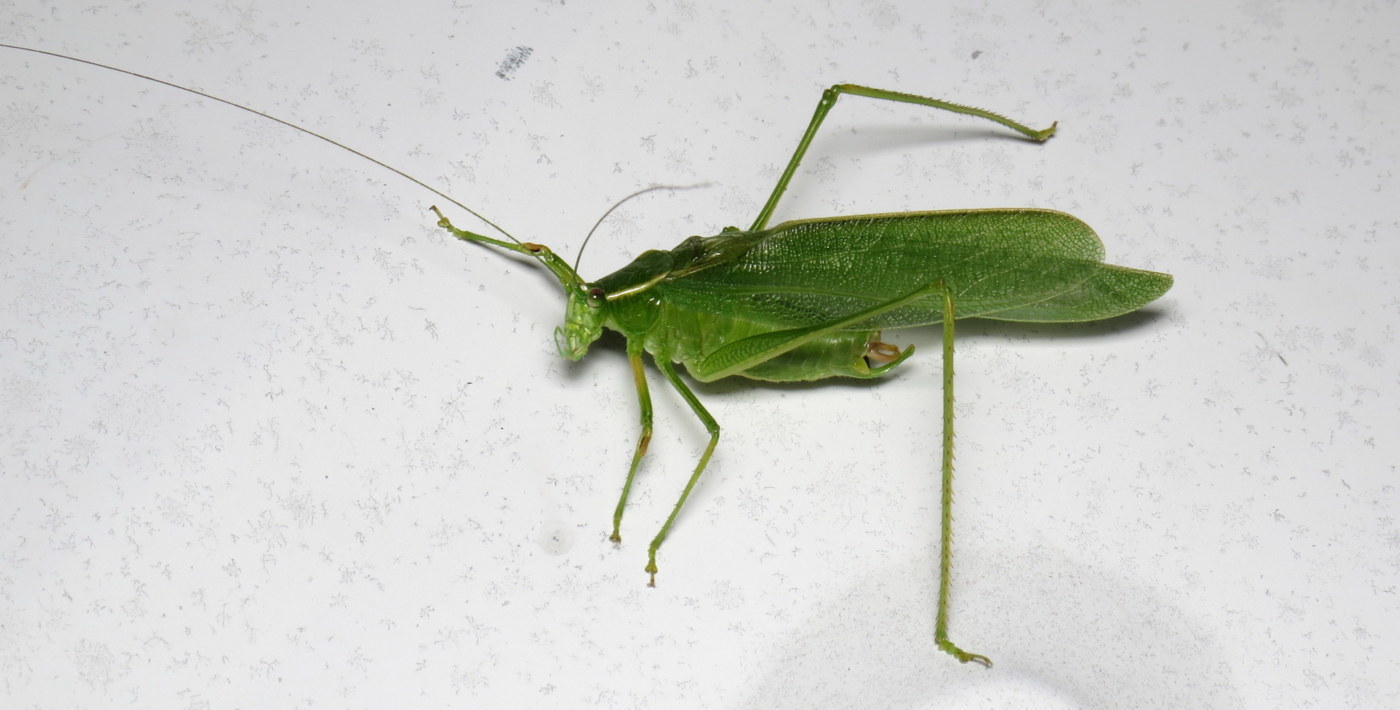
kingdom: Animalia
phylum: Arthropoda
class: Insecta
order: Orthoptera
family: Tettigoniidae
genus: Scudderia
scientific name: Scudderia septentrionalis
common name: Northern bush-katydid
